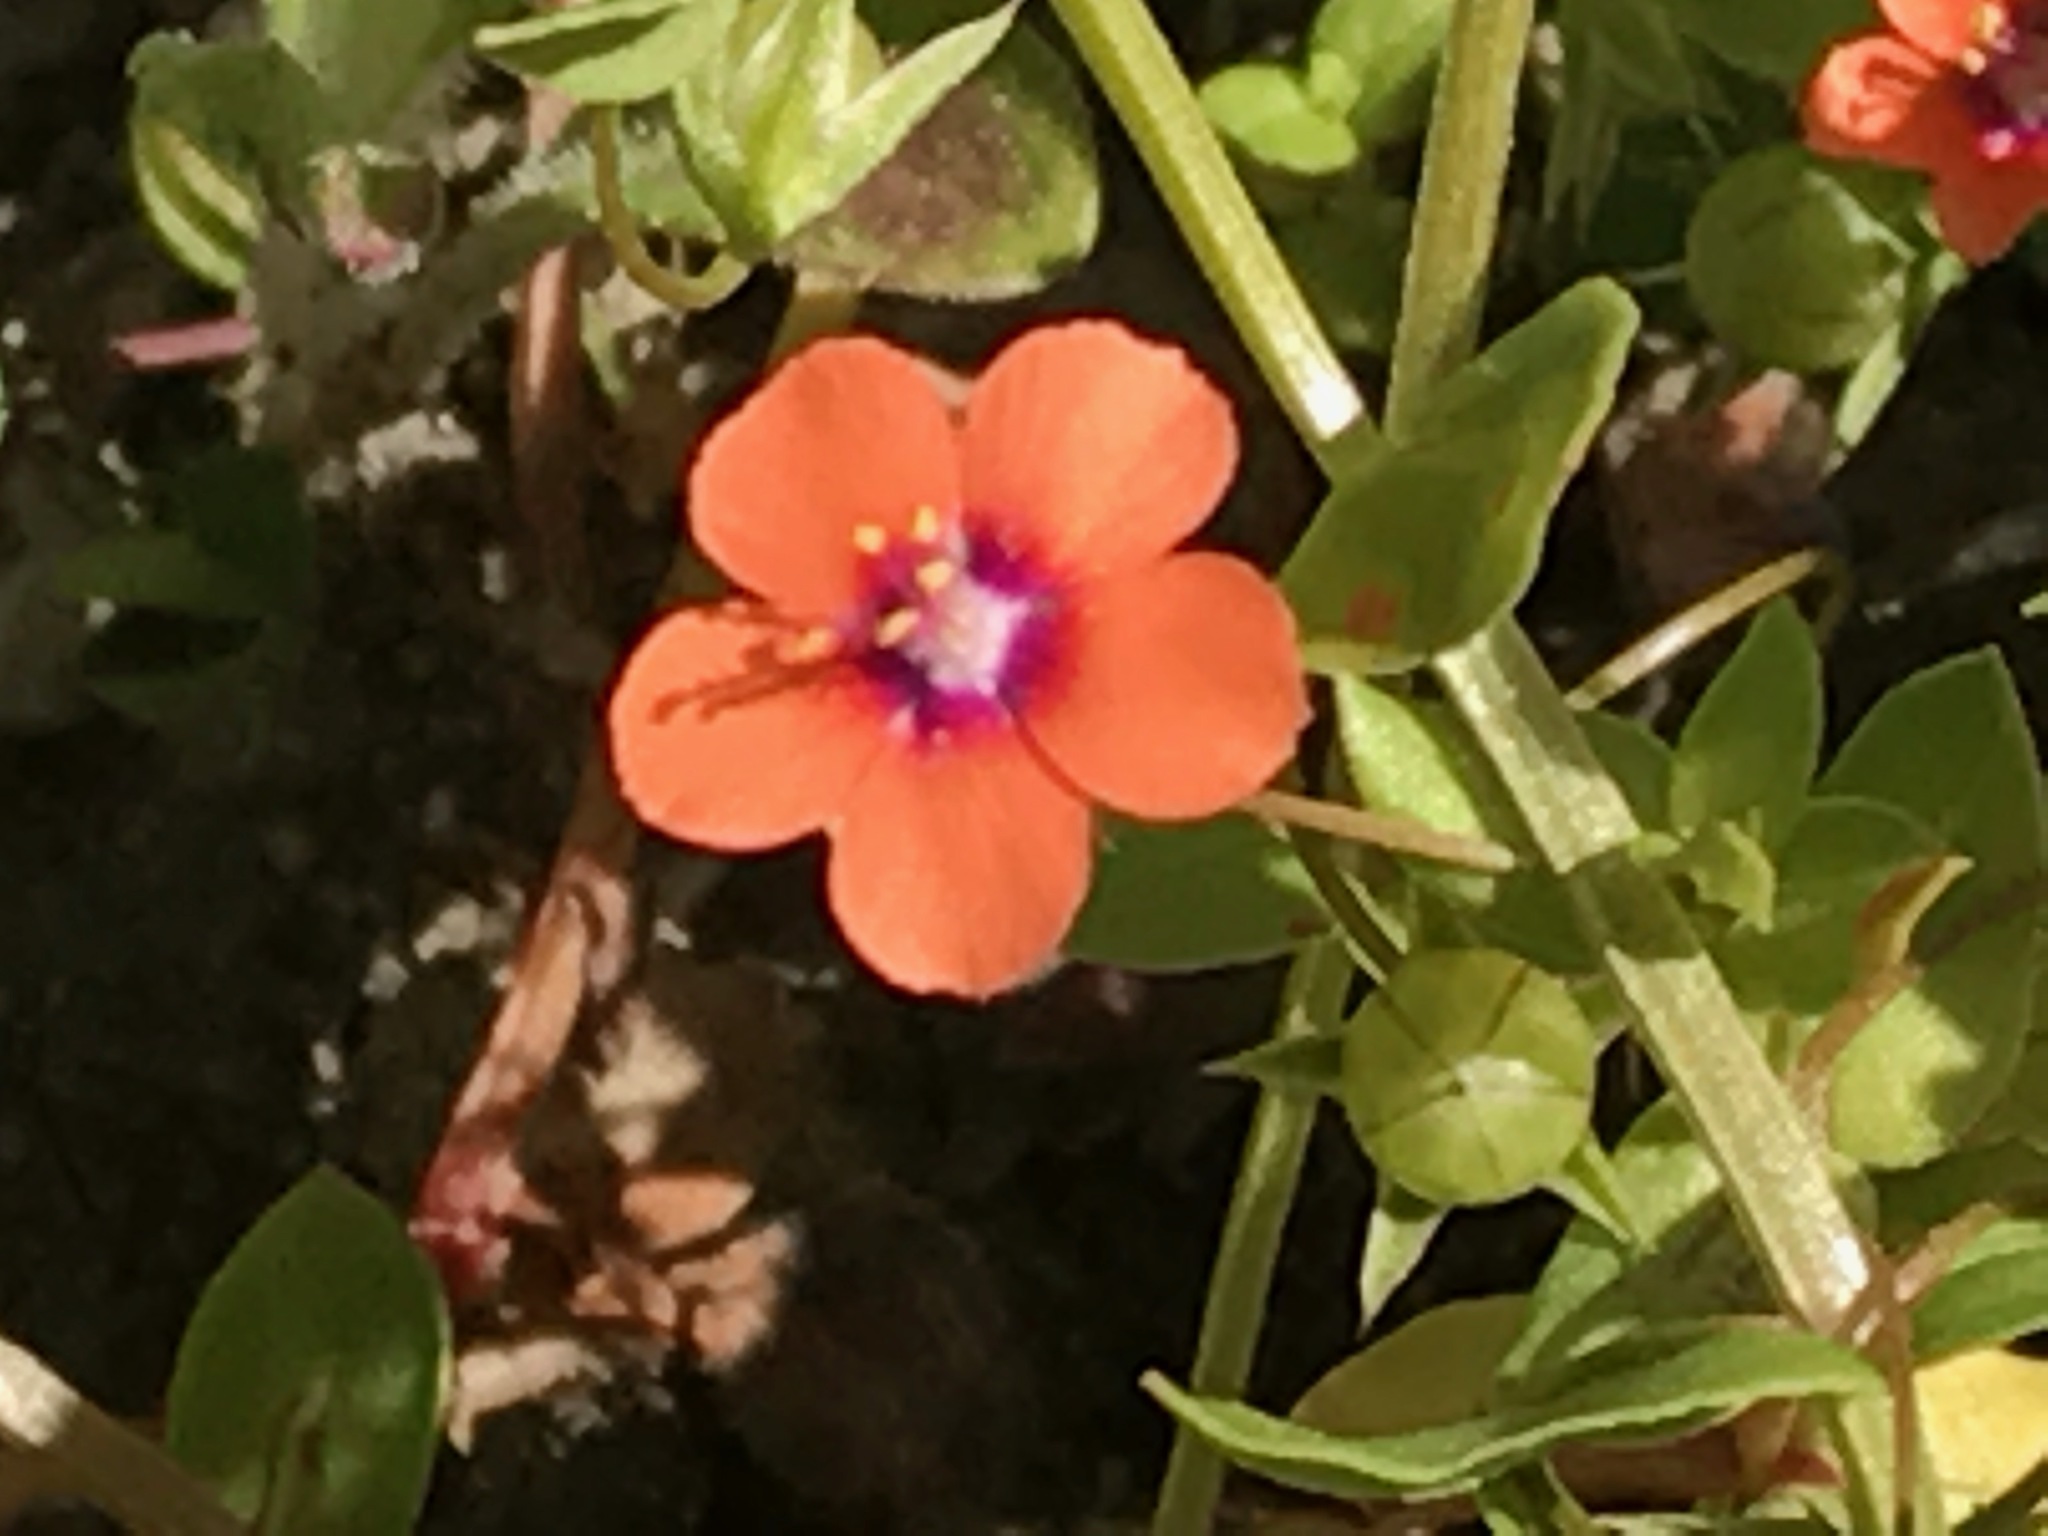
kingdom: Plantae
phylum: Tracheophyta
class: Magnoliopsida
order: Ericales
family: Primulaceae
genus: Lysimachia
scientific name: Lysimachia arvensis
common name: Scarlet pimpernel
